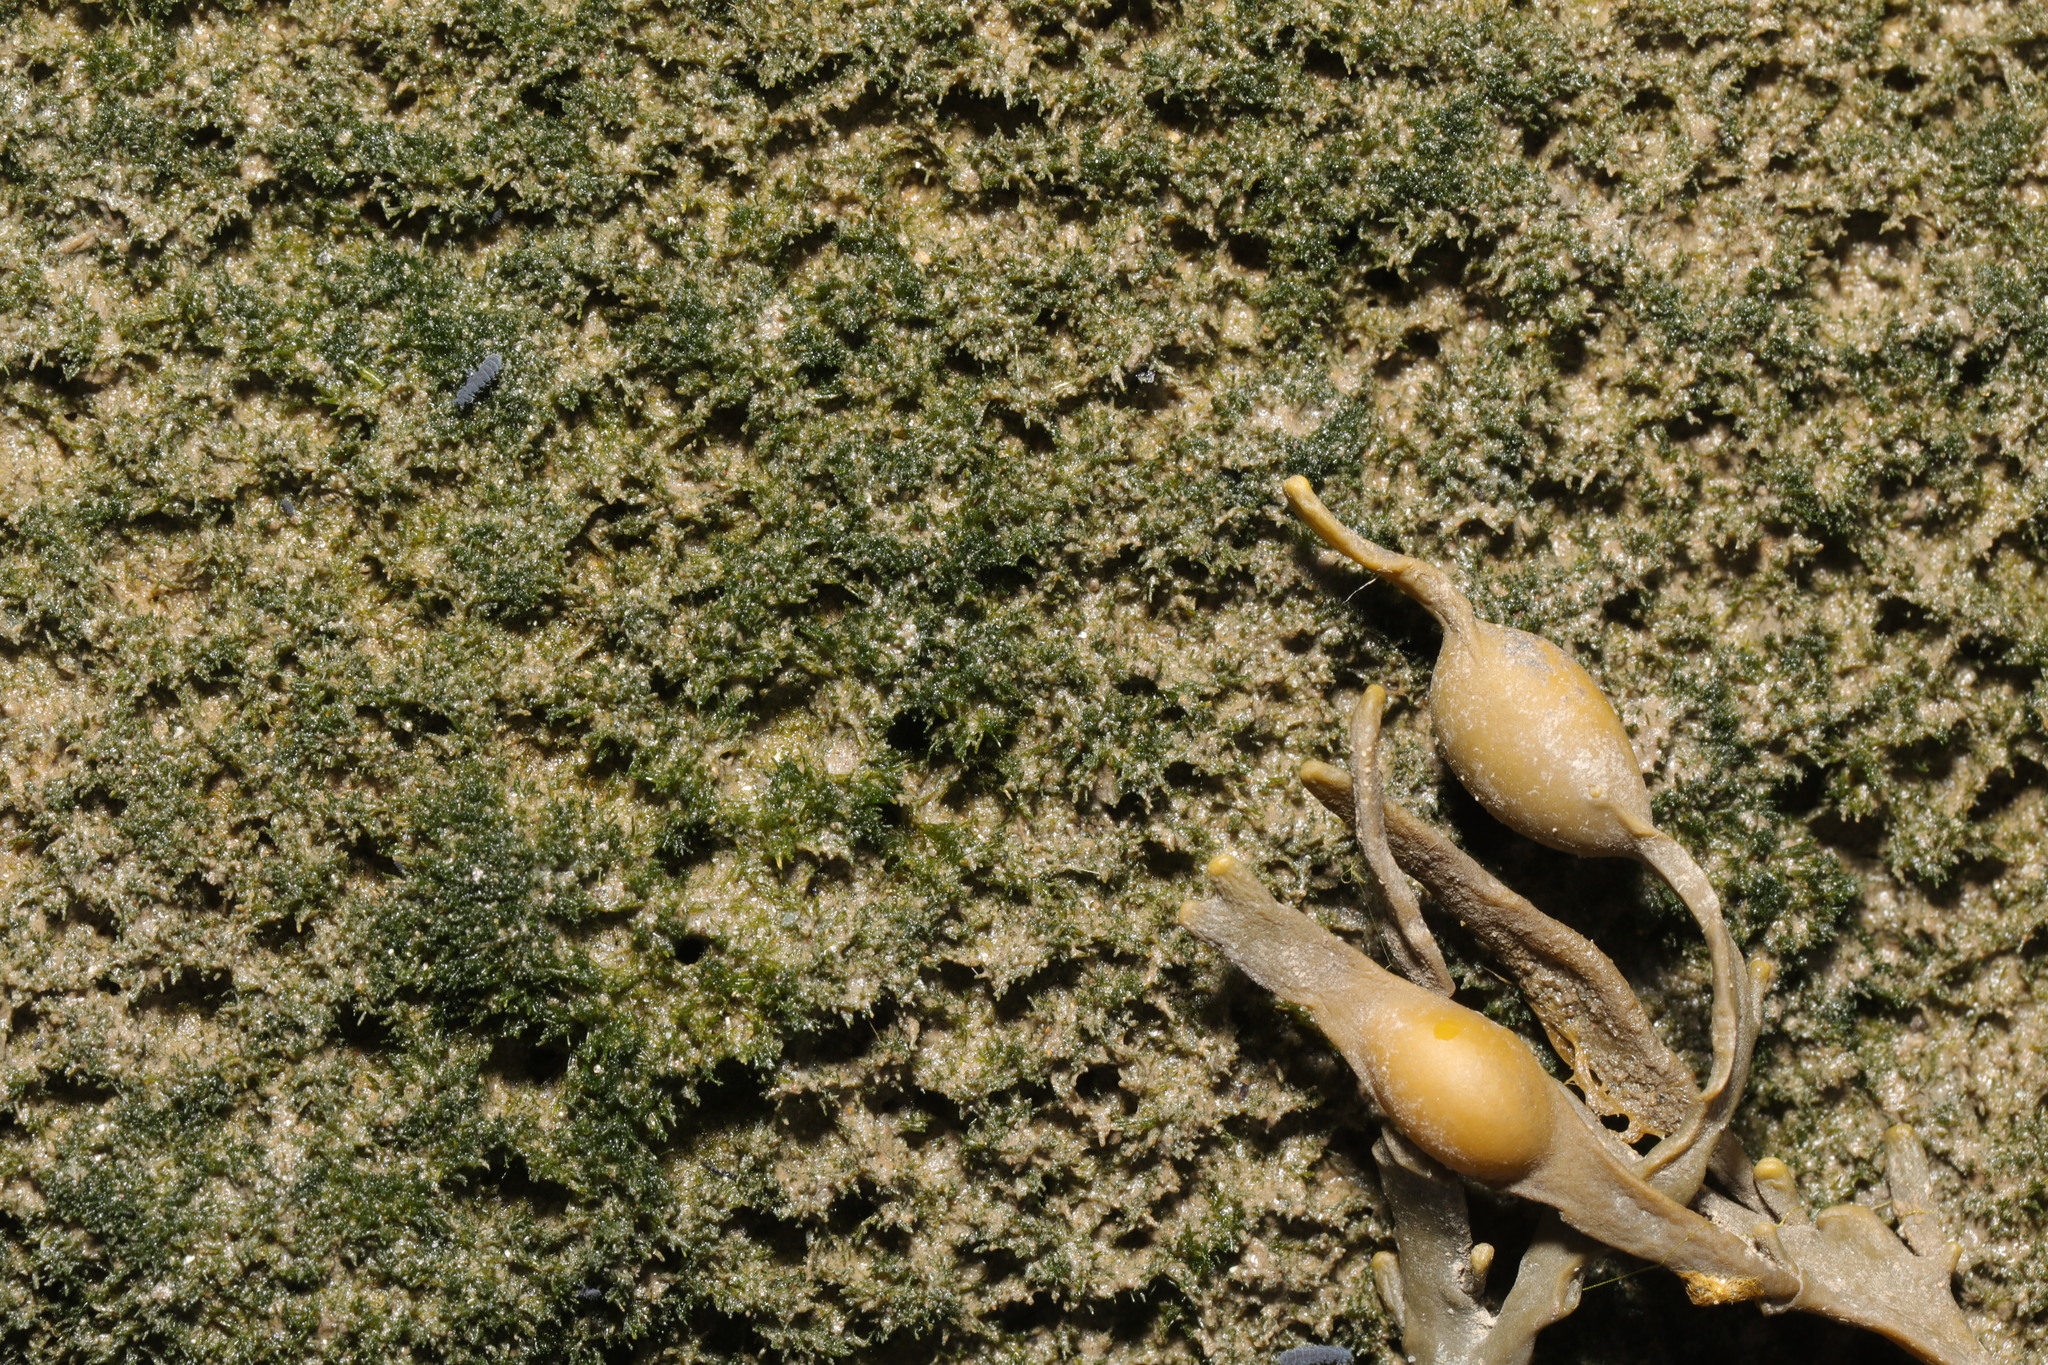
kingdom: Chromista
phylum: Ochrophyta
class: Phaeophyceae
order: Fucales
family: Fucaceae
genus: Ascophyllum
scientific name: Ascophyllum nodosum
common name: Knotted wrack
